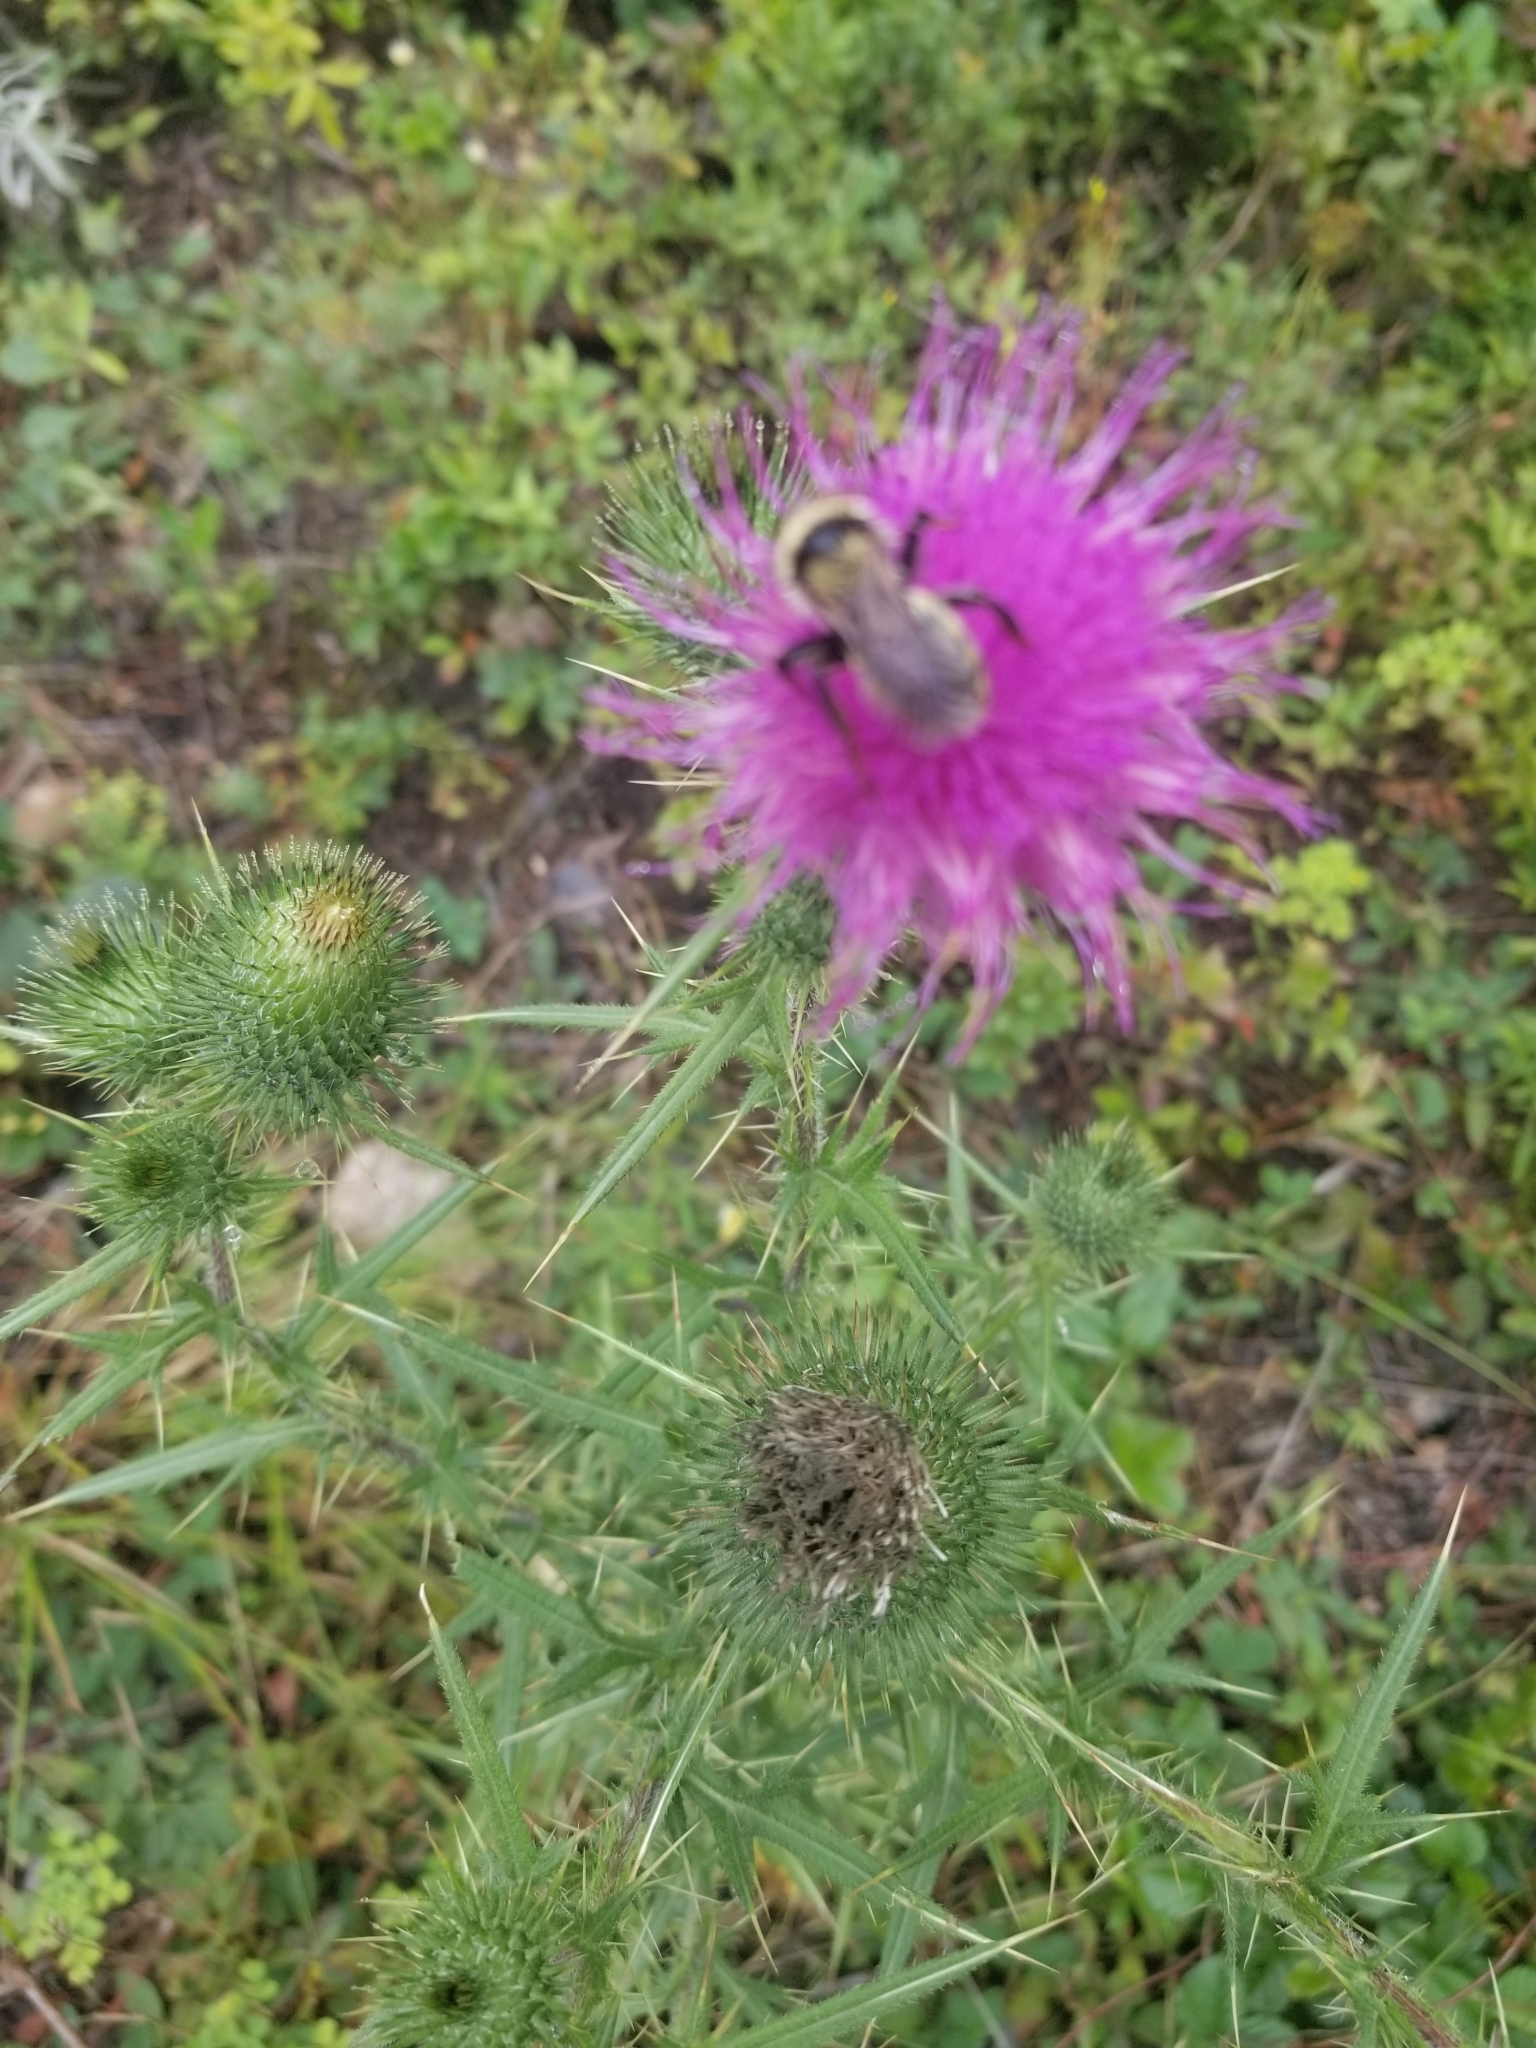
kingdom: Animalia
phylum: Arthropoda
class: Insecta
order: Hymenoptera
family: Apidae
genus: Bombus
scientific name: Bombus fervidus
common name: Yellow bumble bee
